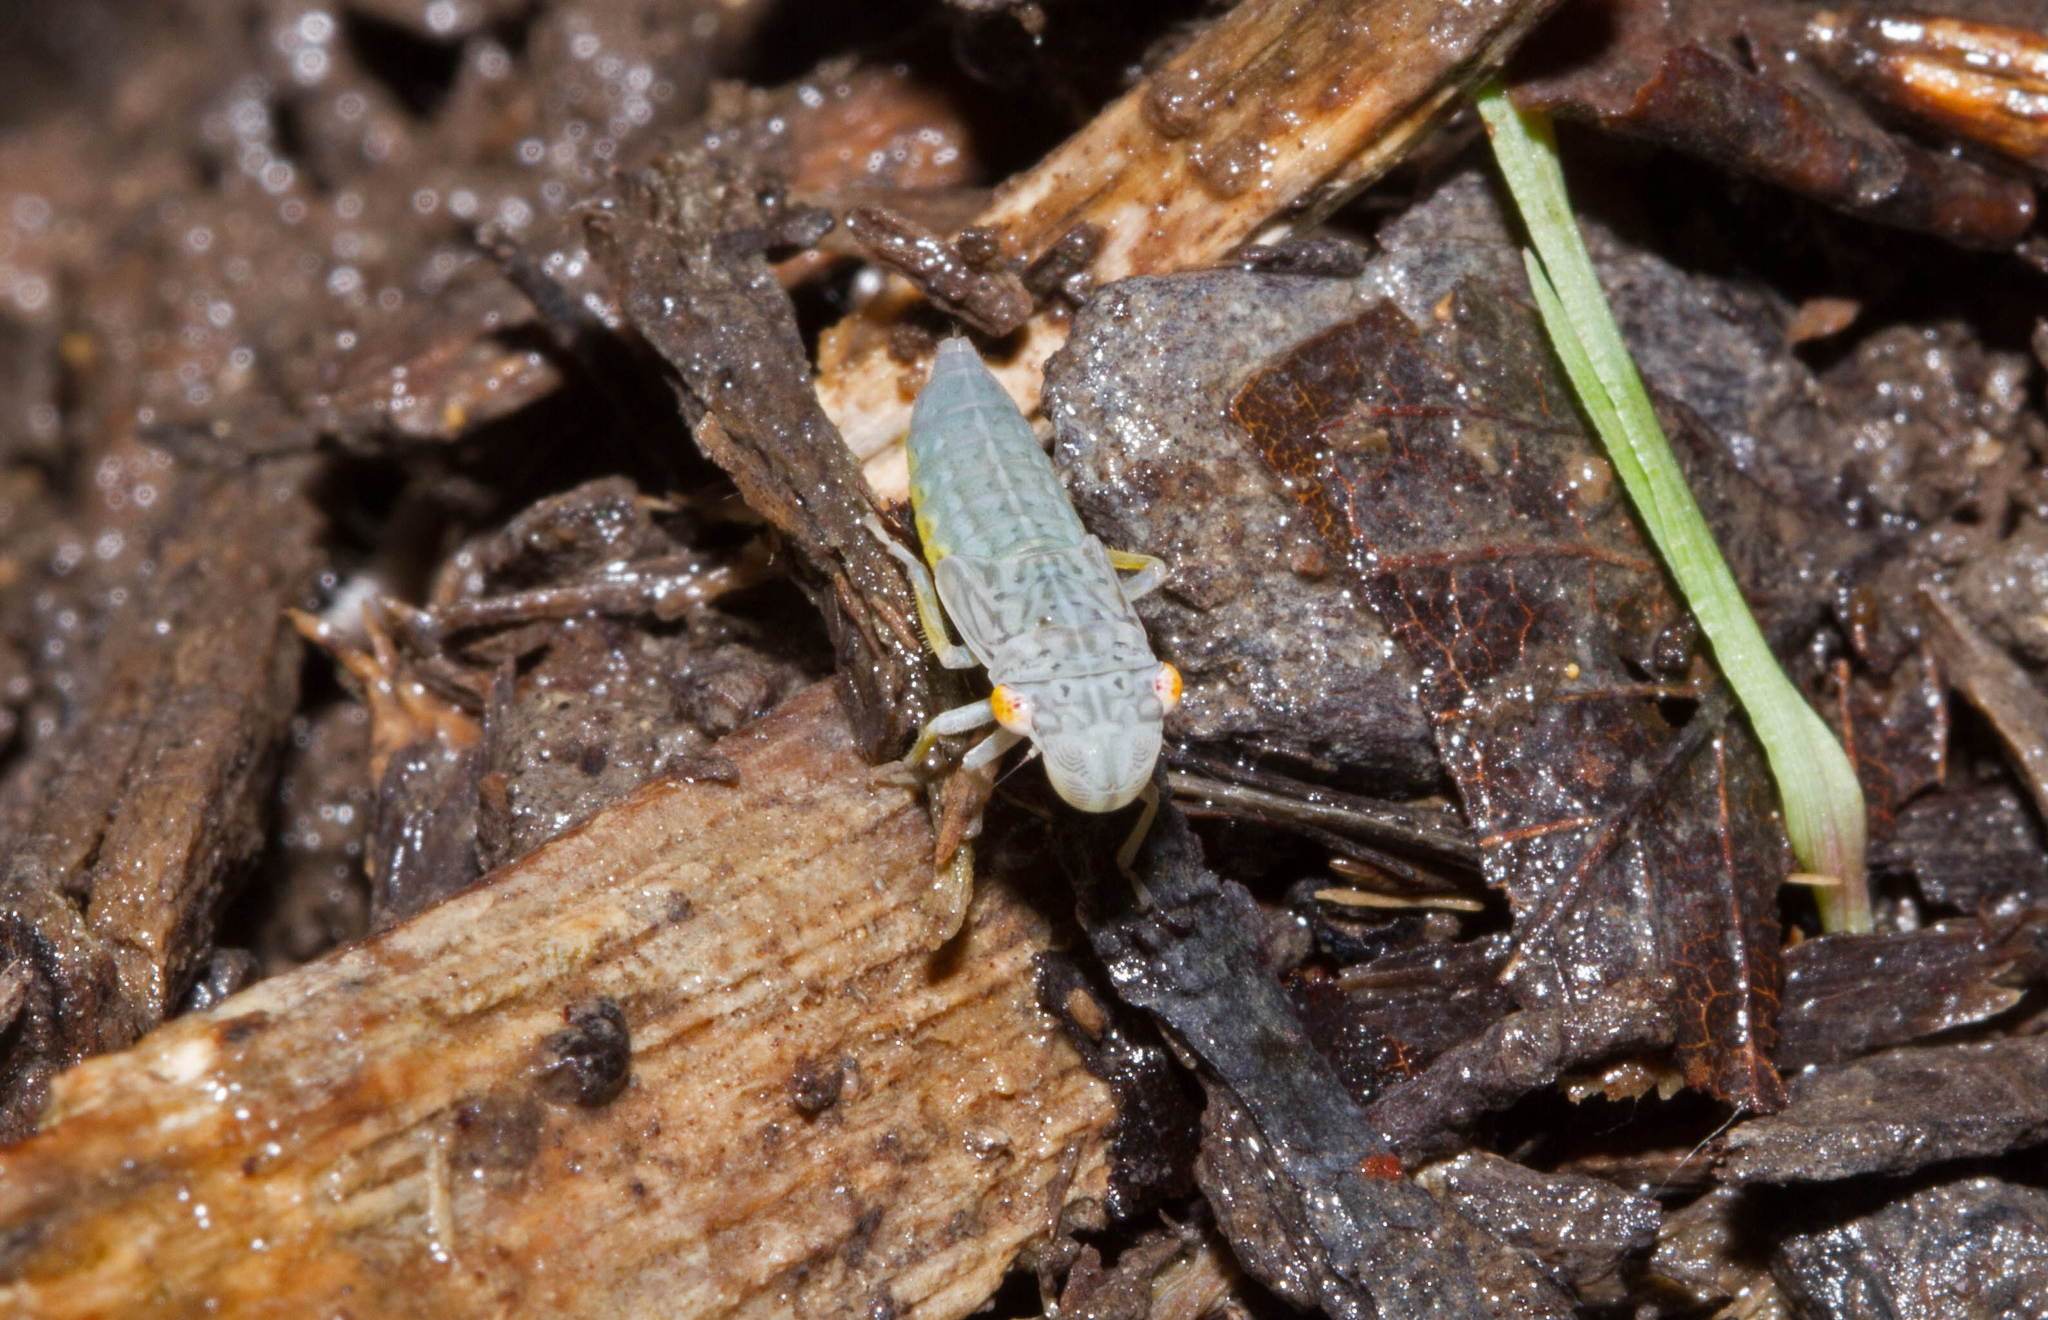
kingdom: Animalia
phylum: Arthropoda
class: Insecta
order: Hemiptera
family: Cicadellidae
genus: Oncometopia
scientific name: Oncometopia orbona
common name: Broad-headed sharpshooter
